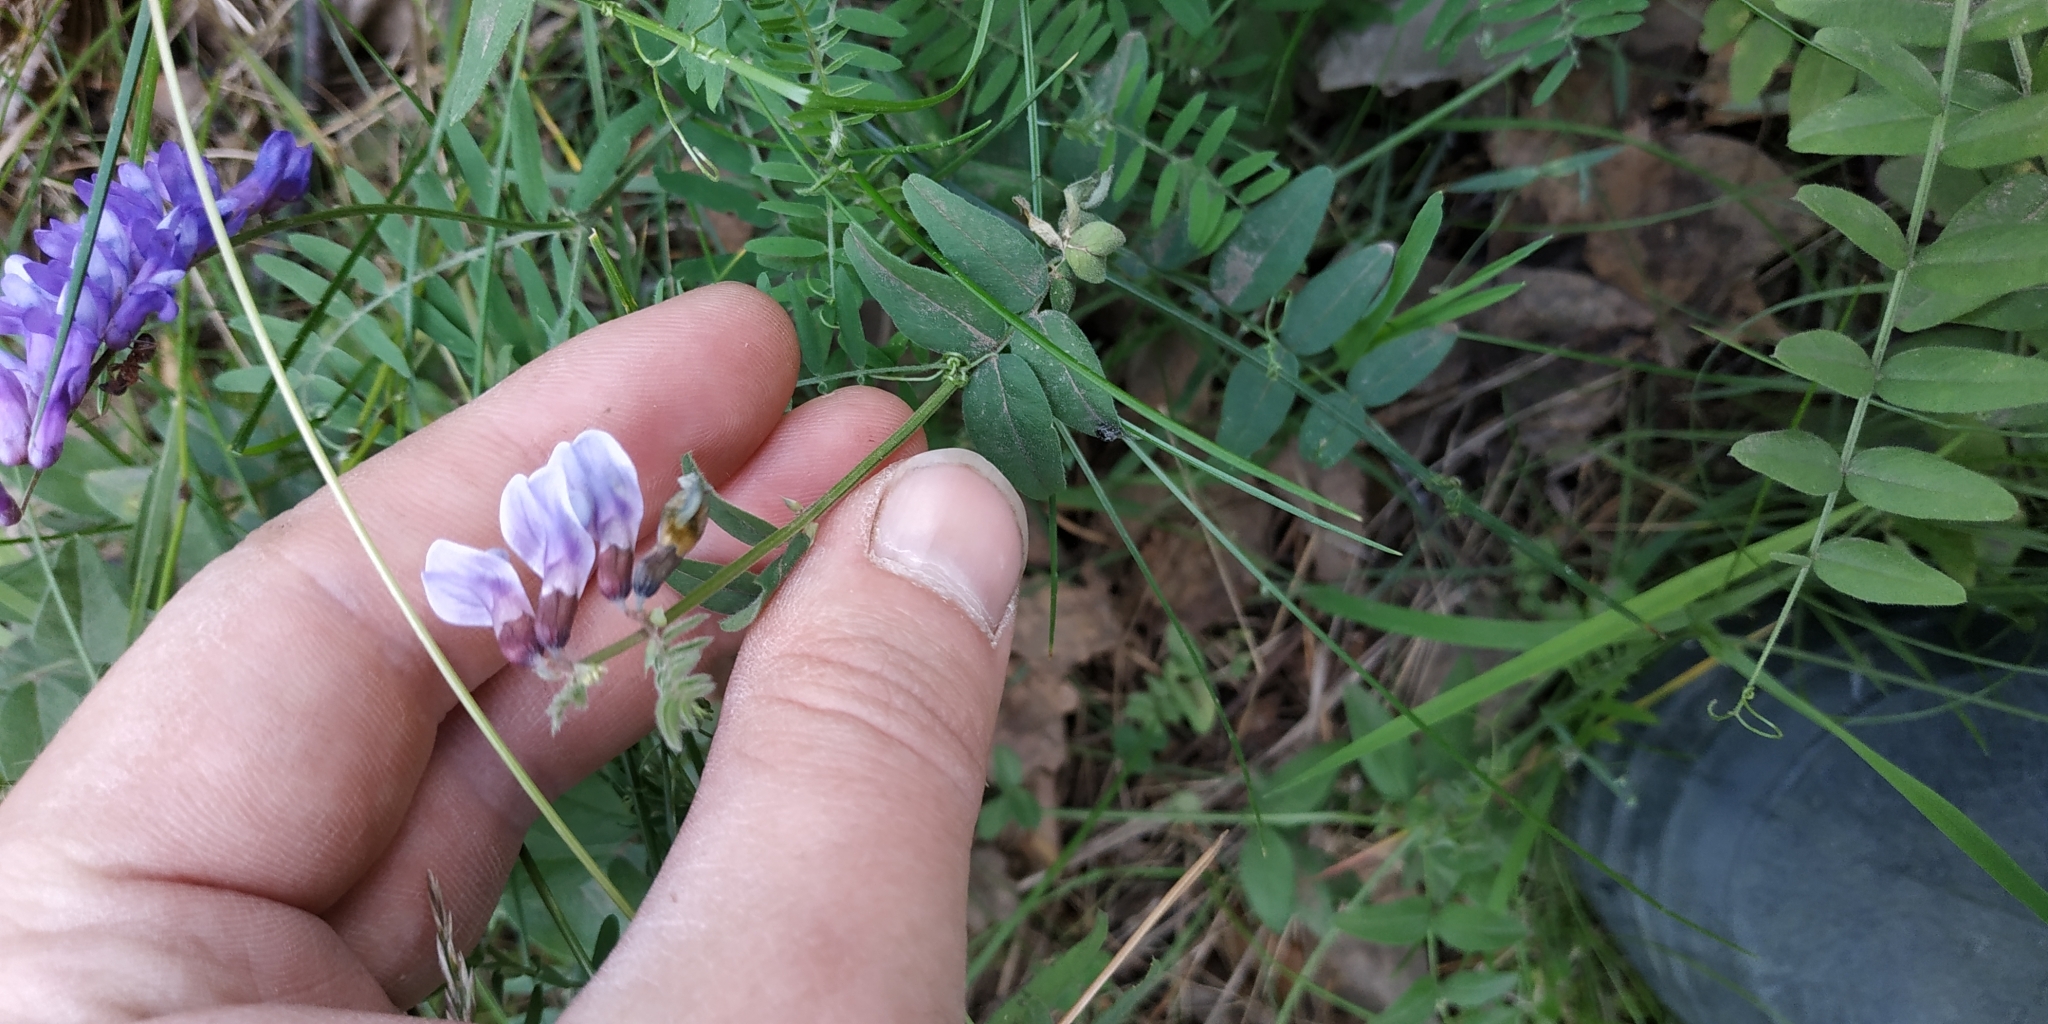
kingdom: Plantae
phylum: Tracheophyta
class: Magnoliopsida
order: Fabales
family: Fabaceae
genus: Vicia
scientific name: Vicia sepium
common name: Bush vetch
